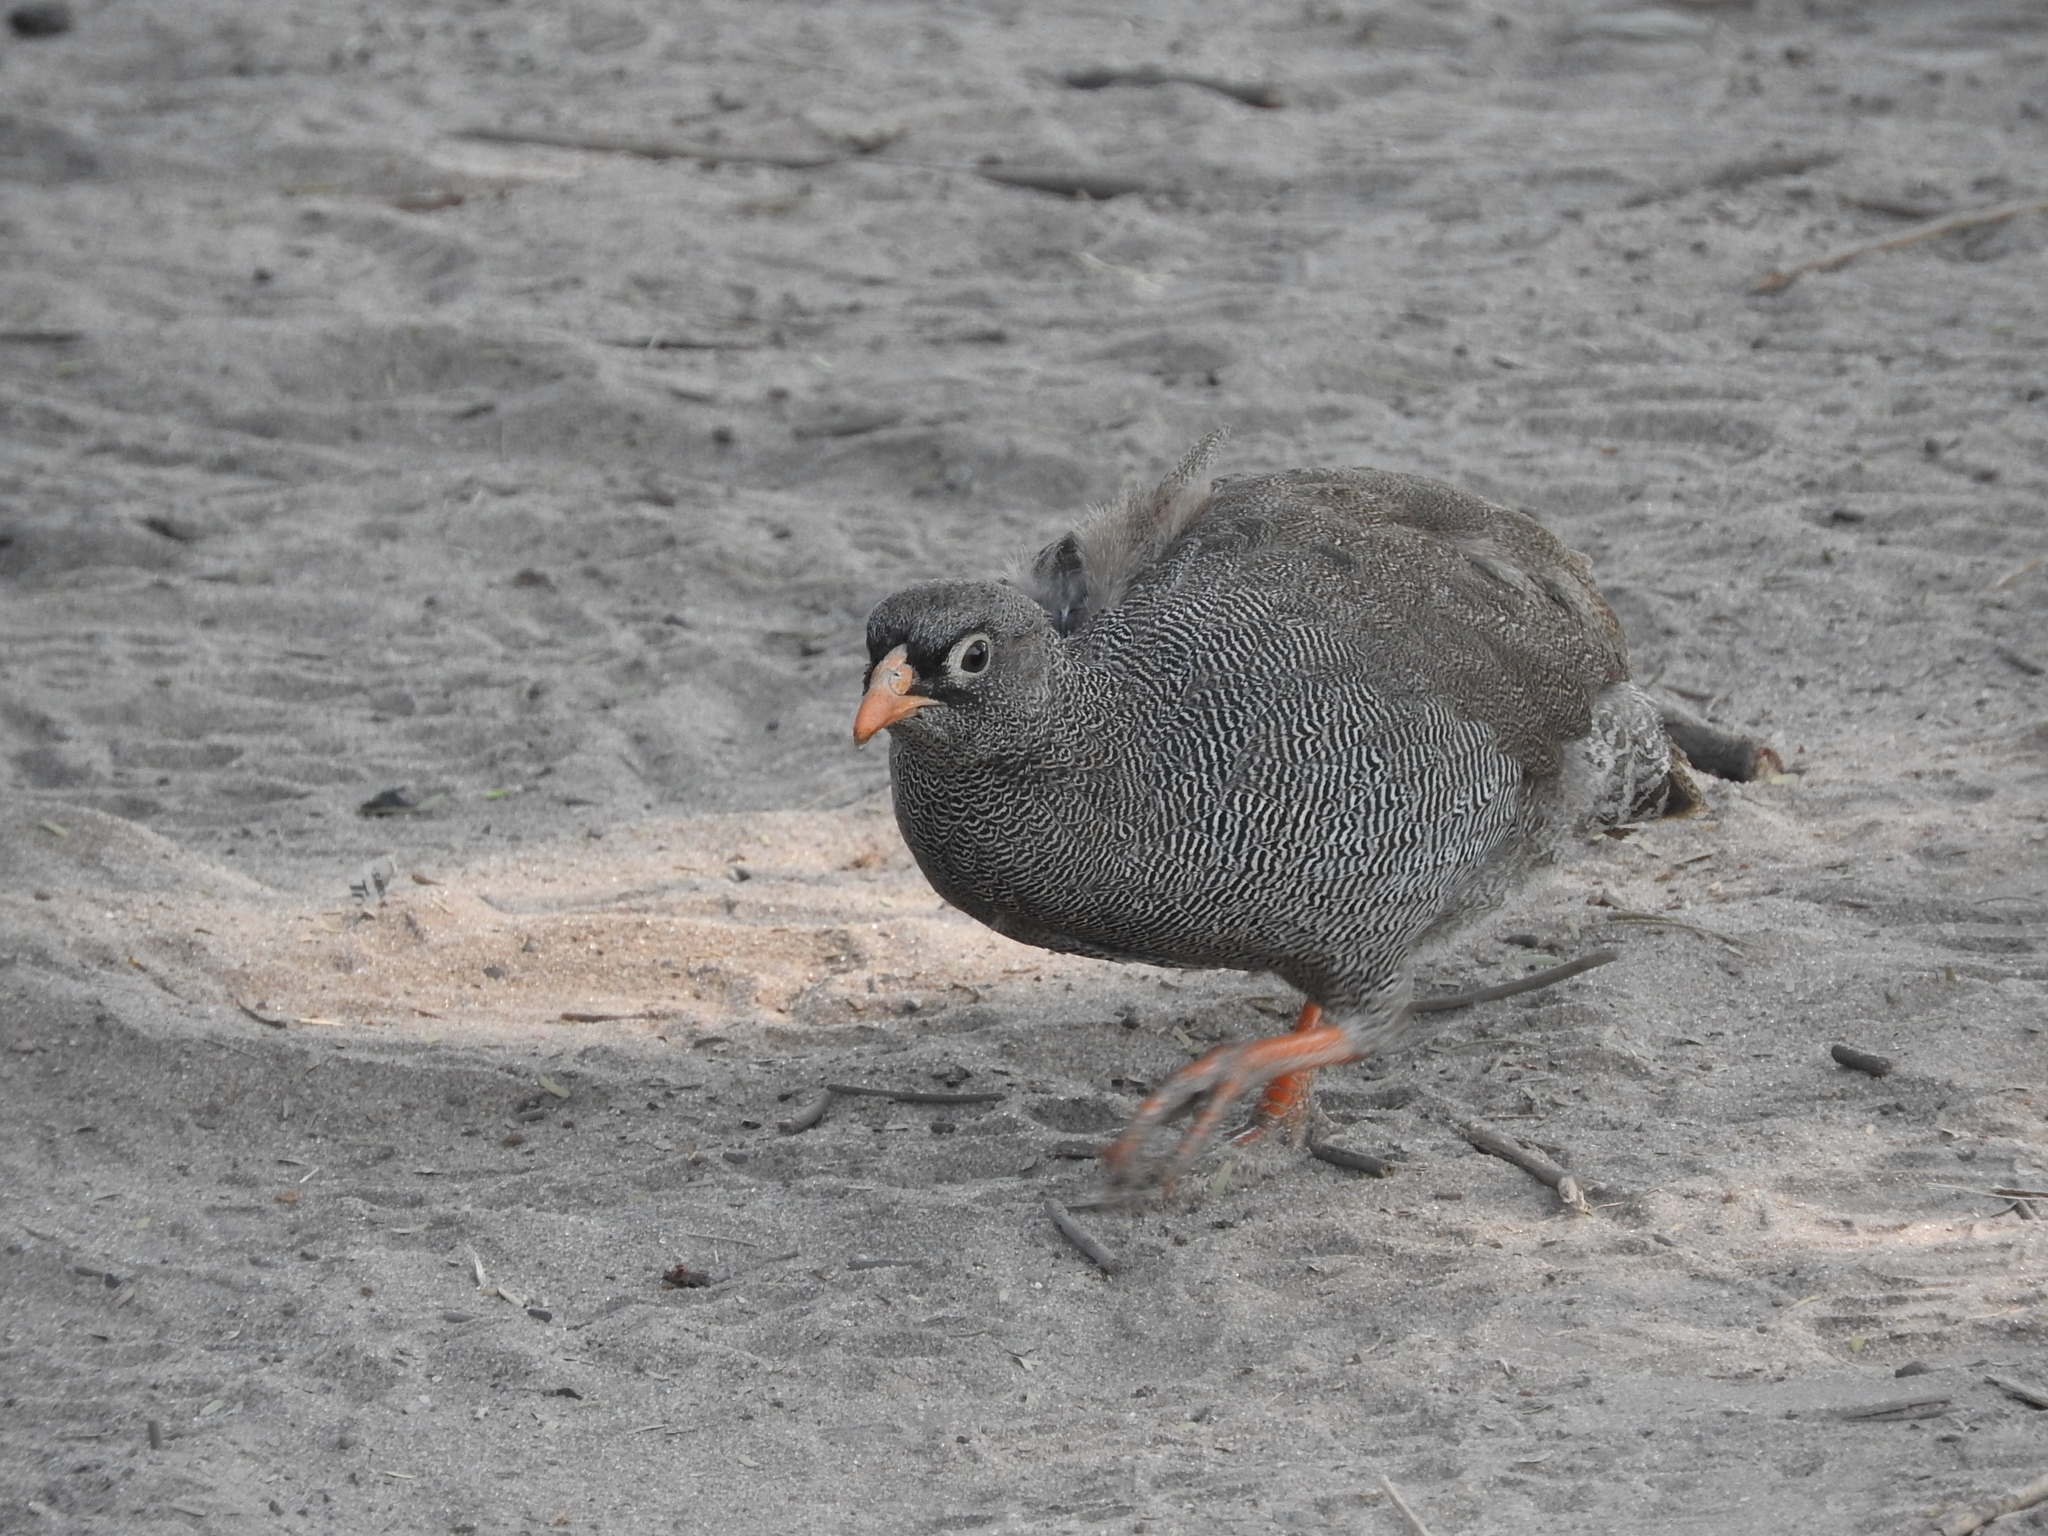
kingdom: Animalia
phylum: Chordata
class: Aves
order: Galliformes
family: Phasianidae
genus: Pternistis
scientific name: Pternistis adspersus
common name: Red-billed spurfowl
